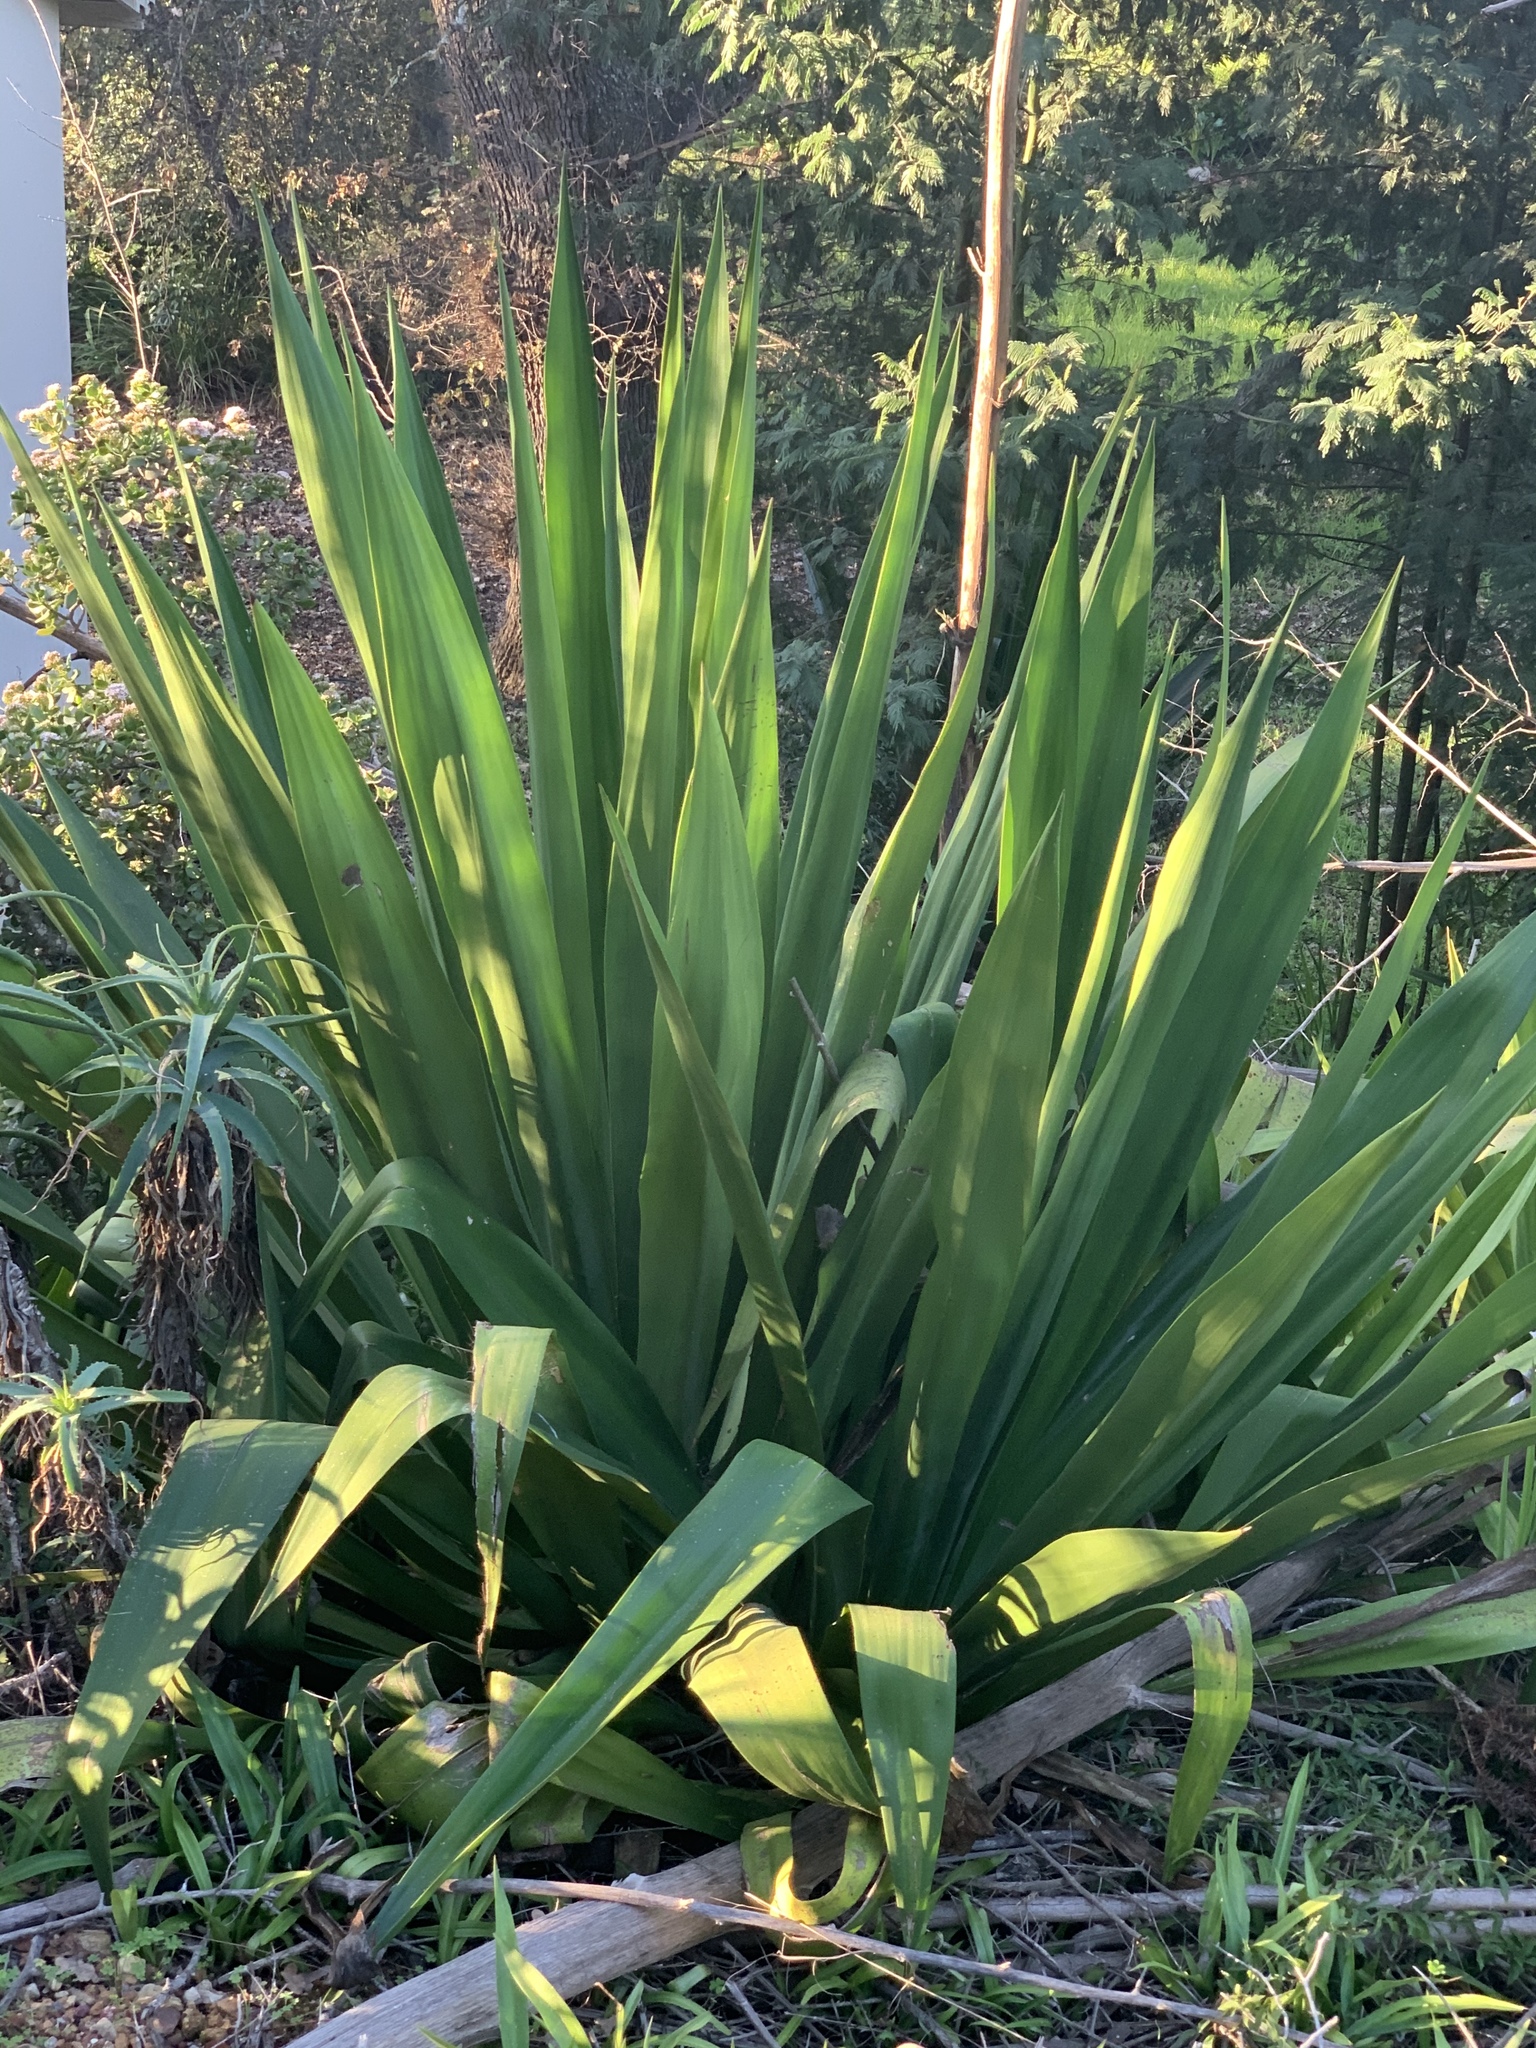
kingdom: Plantae
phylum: Tracheophyta
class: Liliopsida
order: Asparagales
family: Asparagaceae
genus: Furcraea
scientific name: Furcraea foetida
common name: Mauritius hemp
